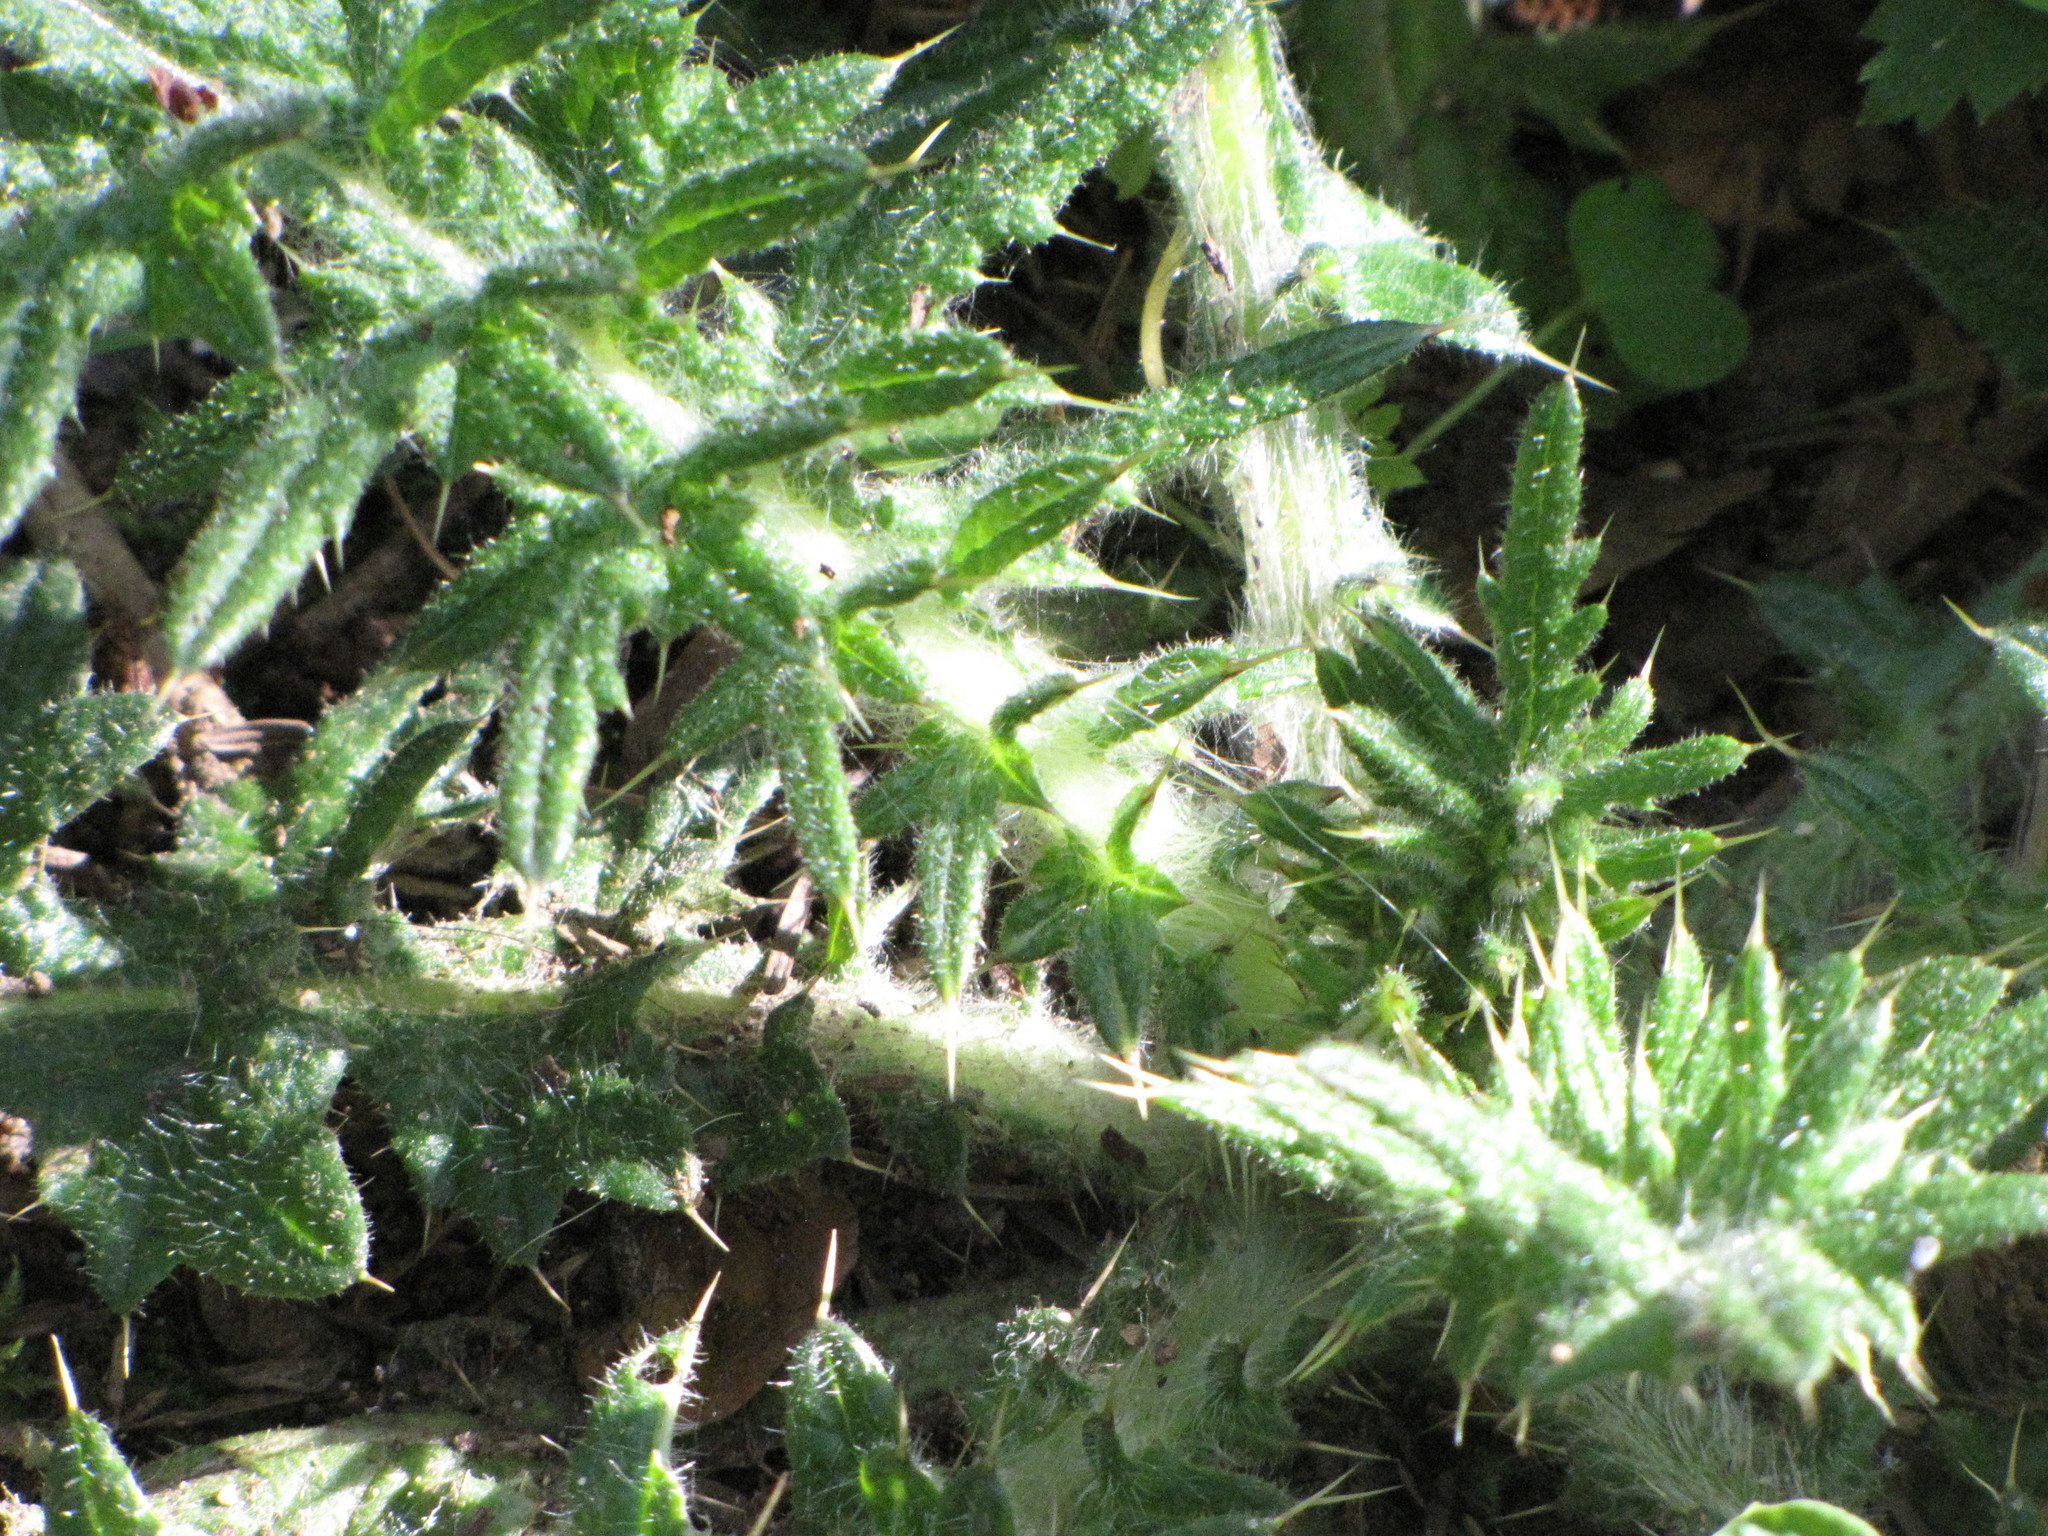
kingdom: Plantae
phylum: Tracheophyta
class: Magnoliopsida
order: Asterales
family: Asteraceae
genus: Cirsium
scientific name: Cirsium vulgare
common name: Bull thistle
